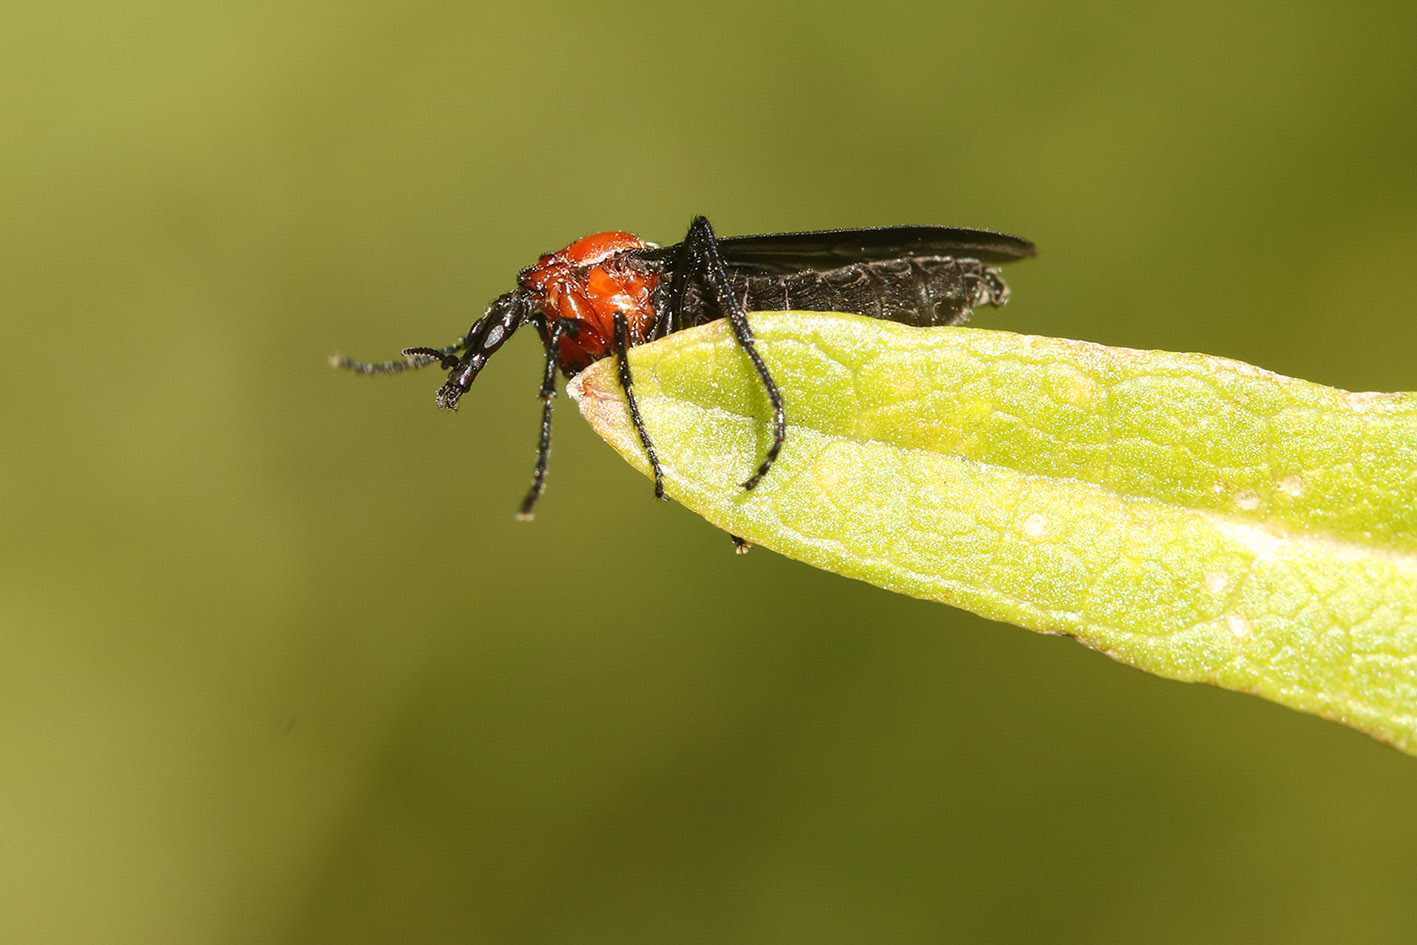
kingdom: Animalia
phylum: Arthropoda
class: Insecta
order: Diptera
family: Bibionidae
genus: Dilophus
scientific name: Dilophus pectoralis
